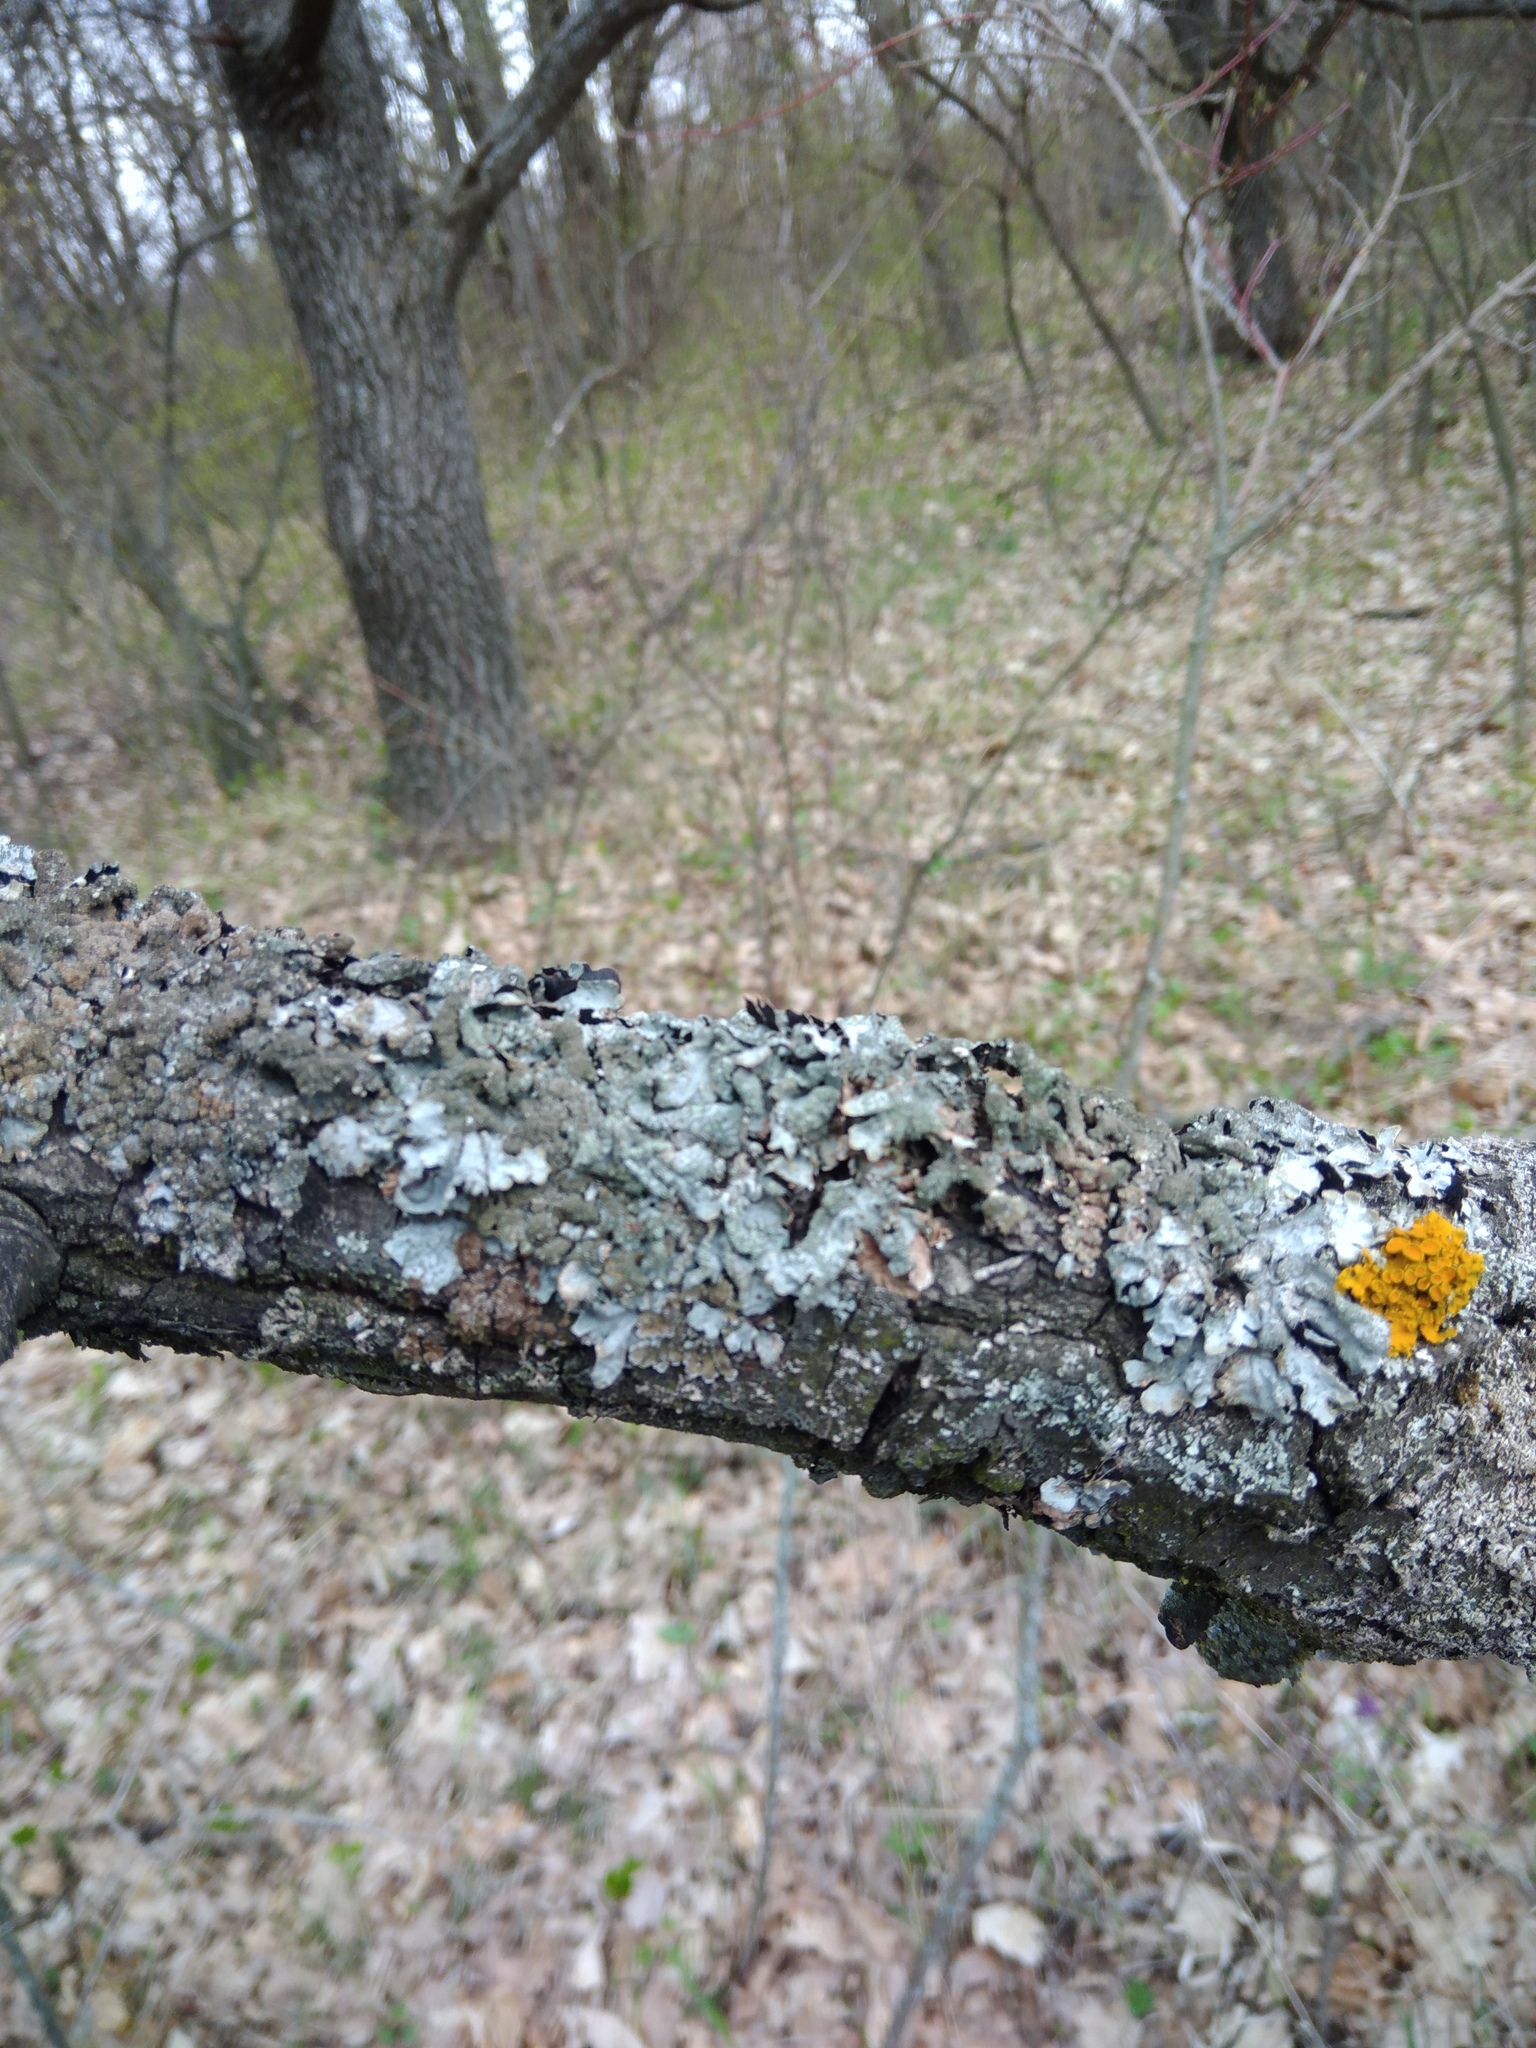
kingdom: Fungi
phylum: Ascomycota
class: Lecanoromycetes
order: Lecanorales
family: Parmeliaceae
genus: Parmelia
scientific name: Parmelia sulcata
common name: Netted shield lichen
